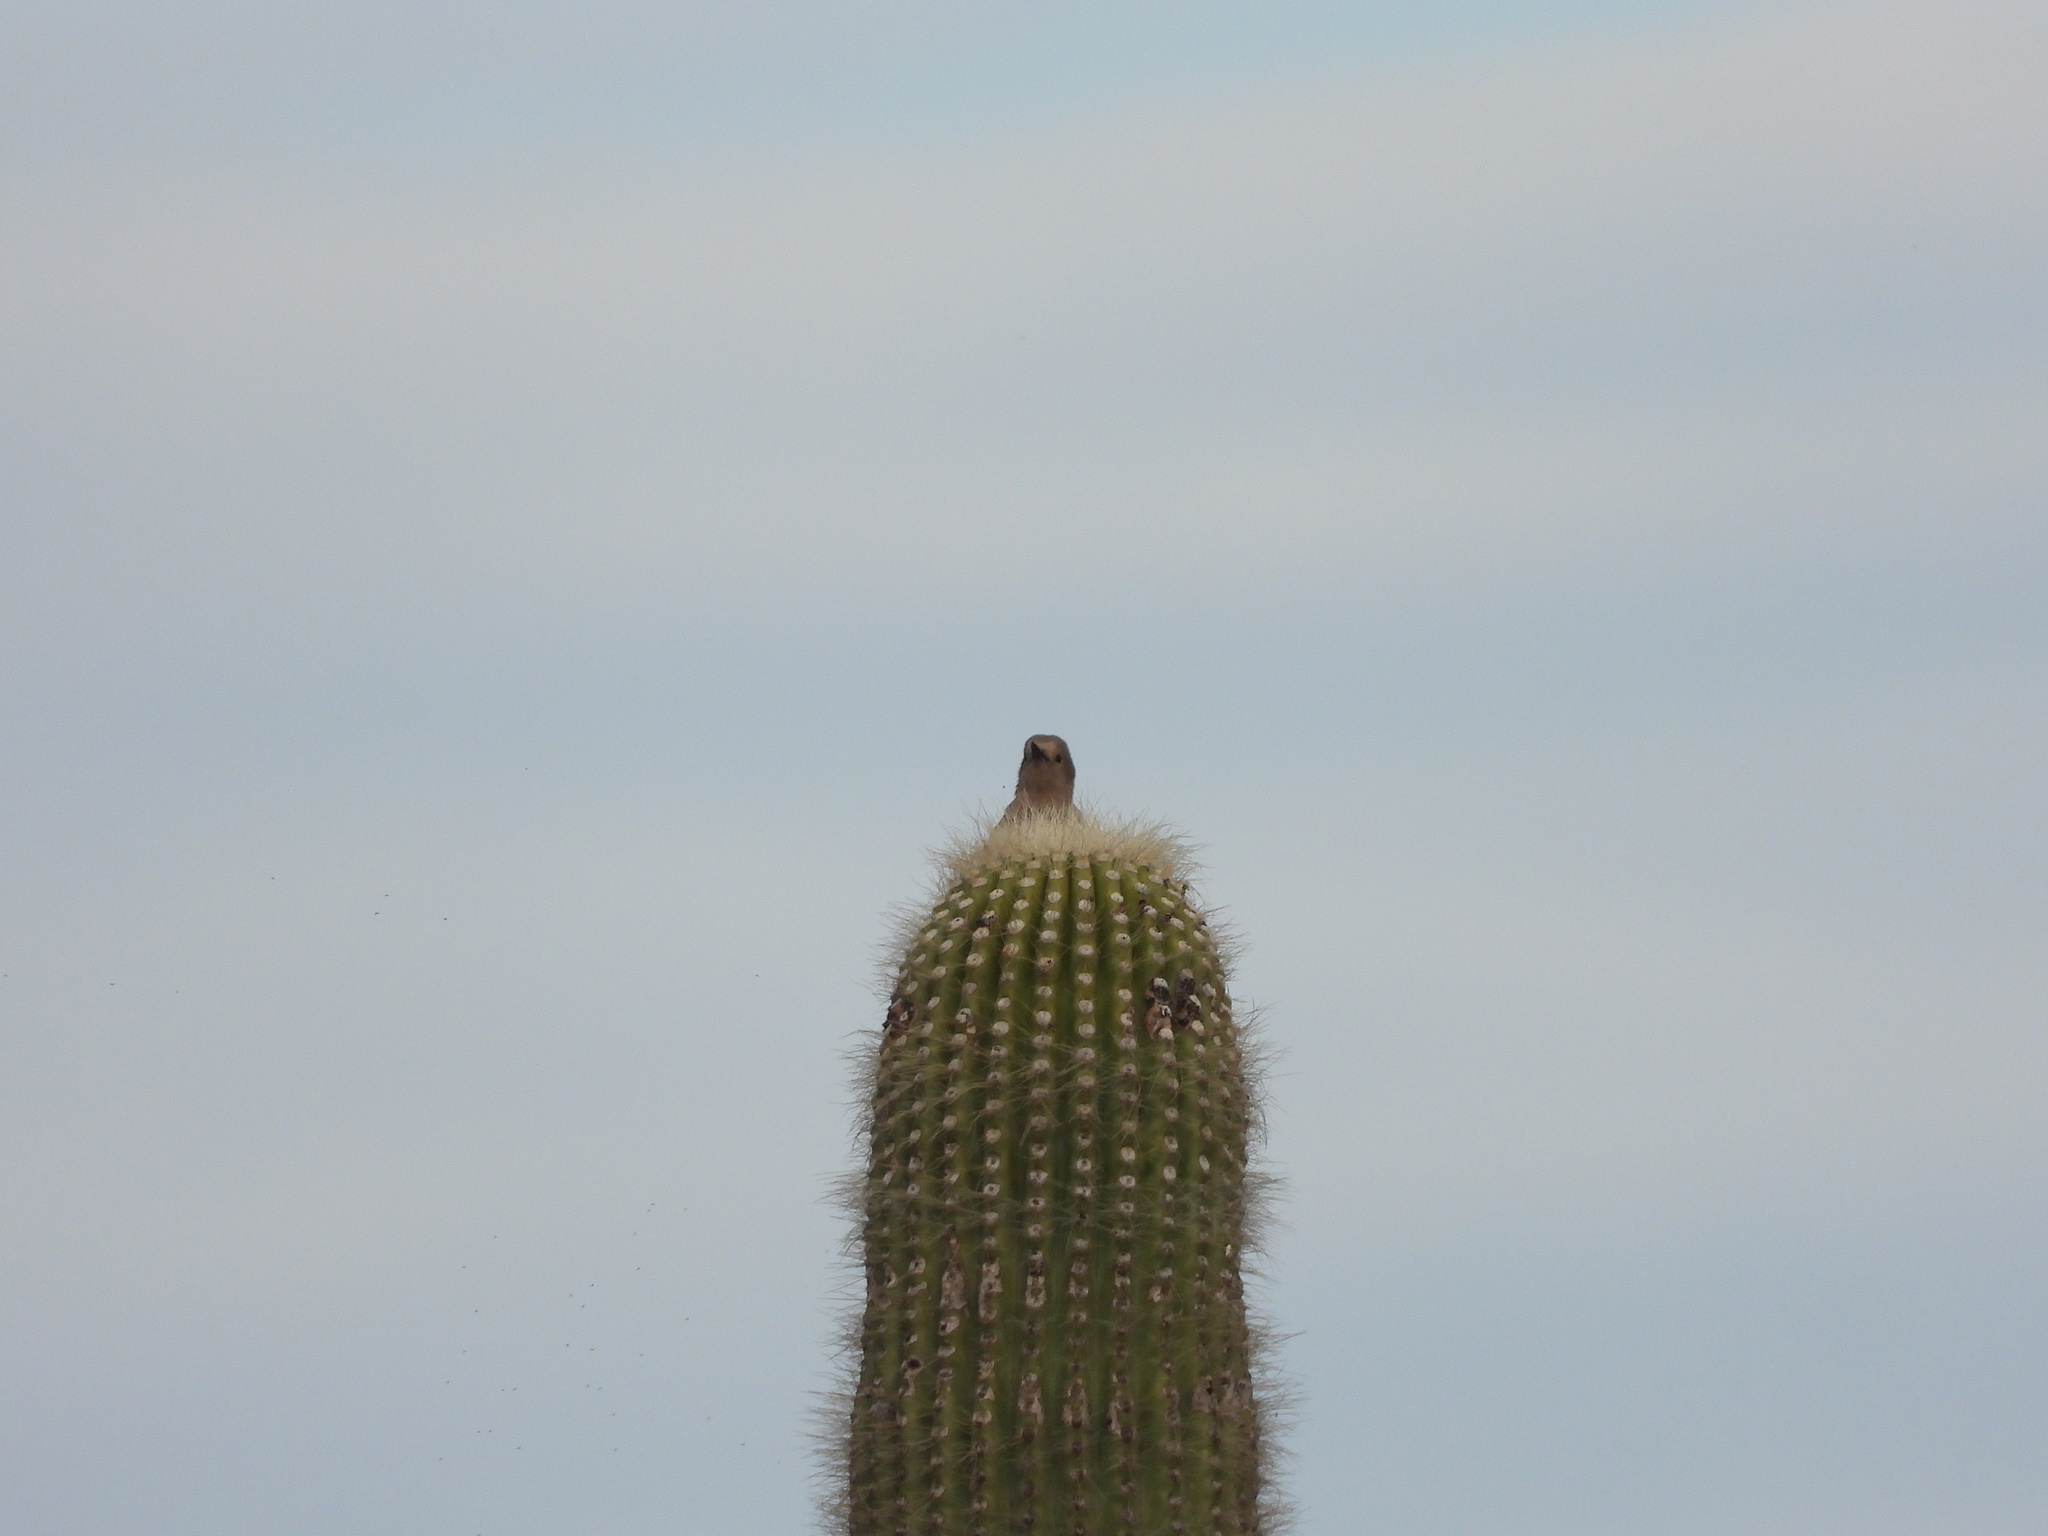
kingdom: Animalia
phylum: Chordata
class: Aves
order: Piciformes
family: Picidae
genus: Melanerpes
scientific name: Melanerpes uropygialis
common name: Gila woodpecker
